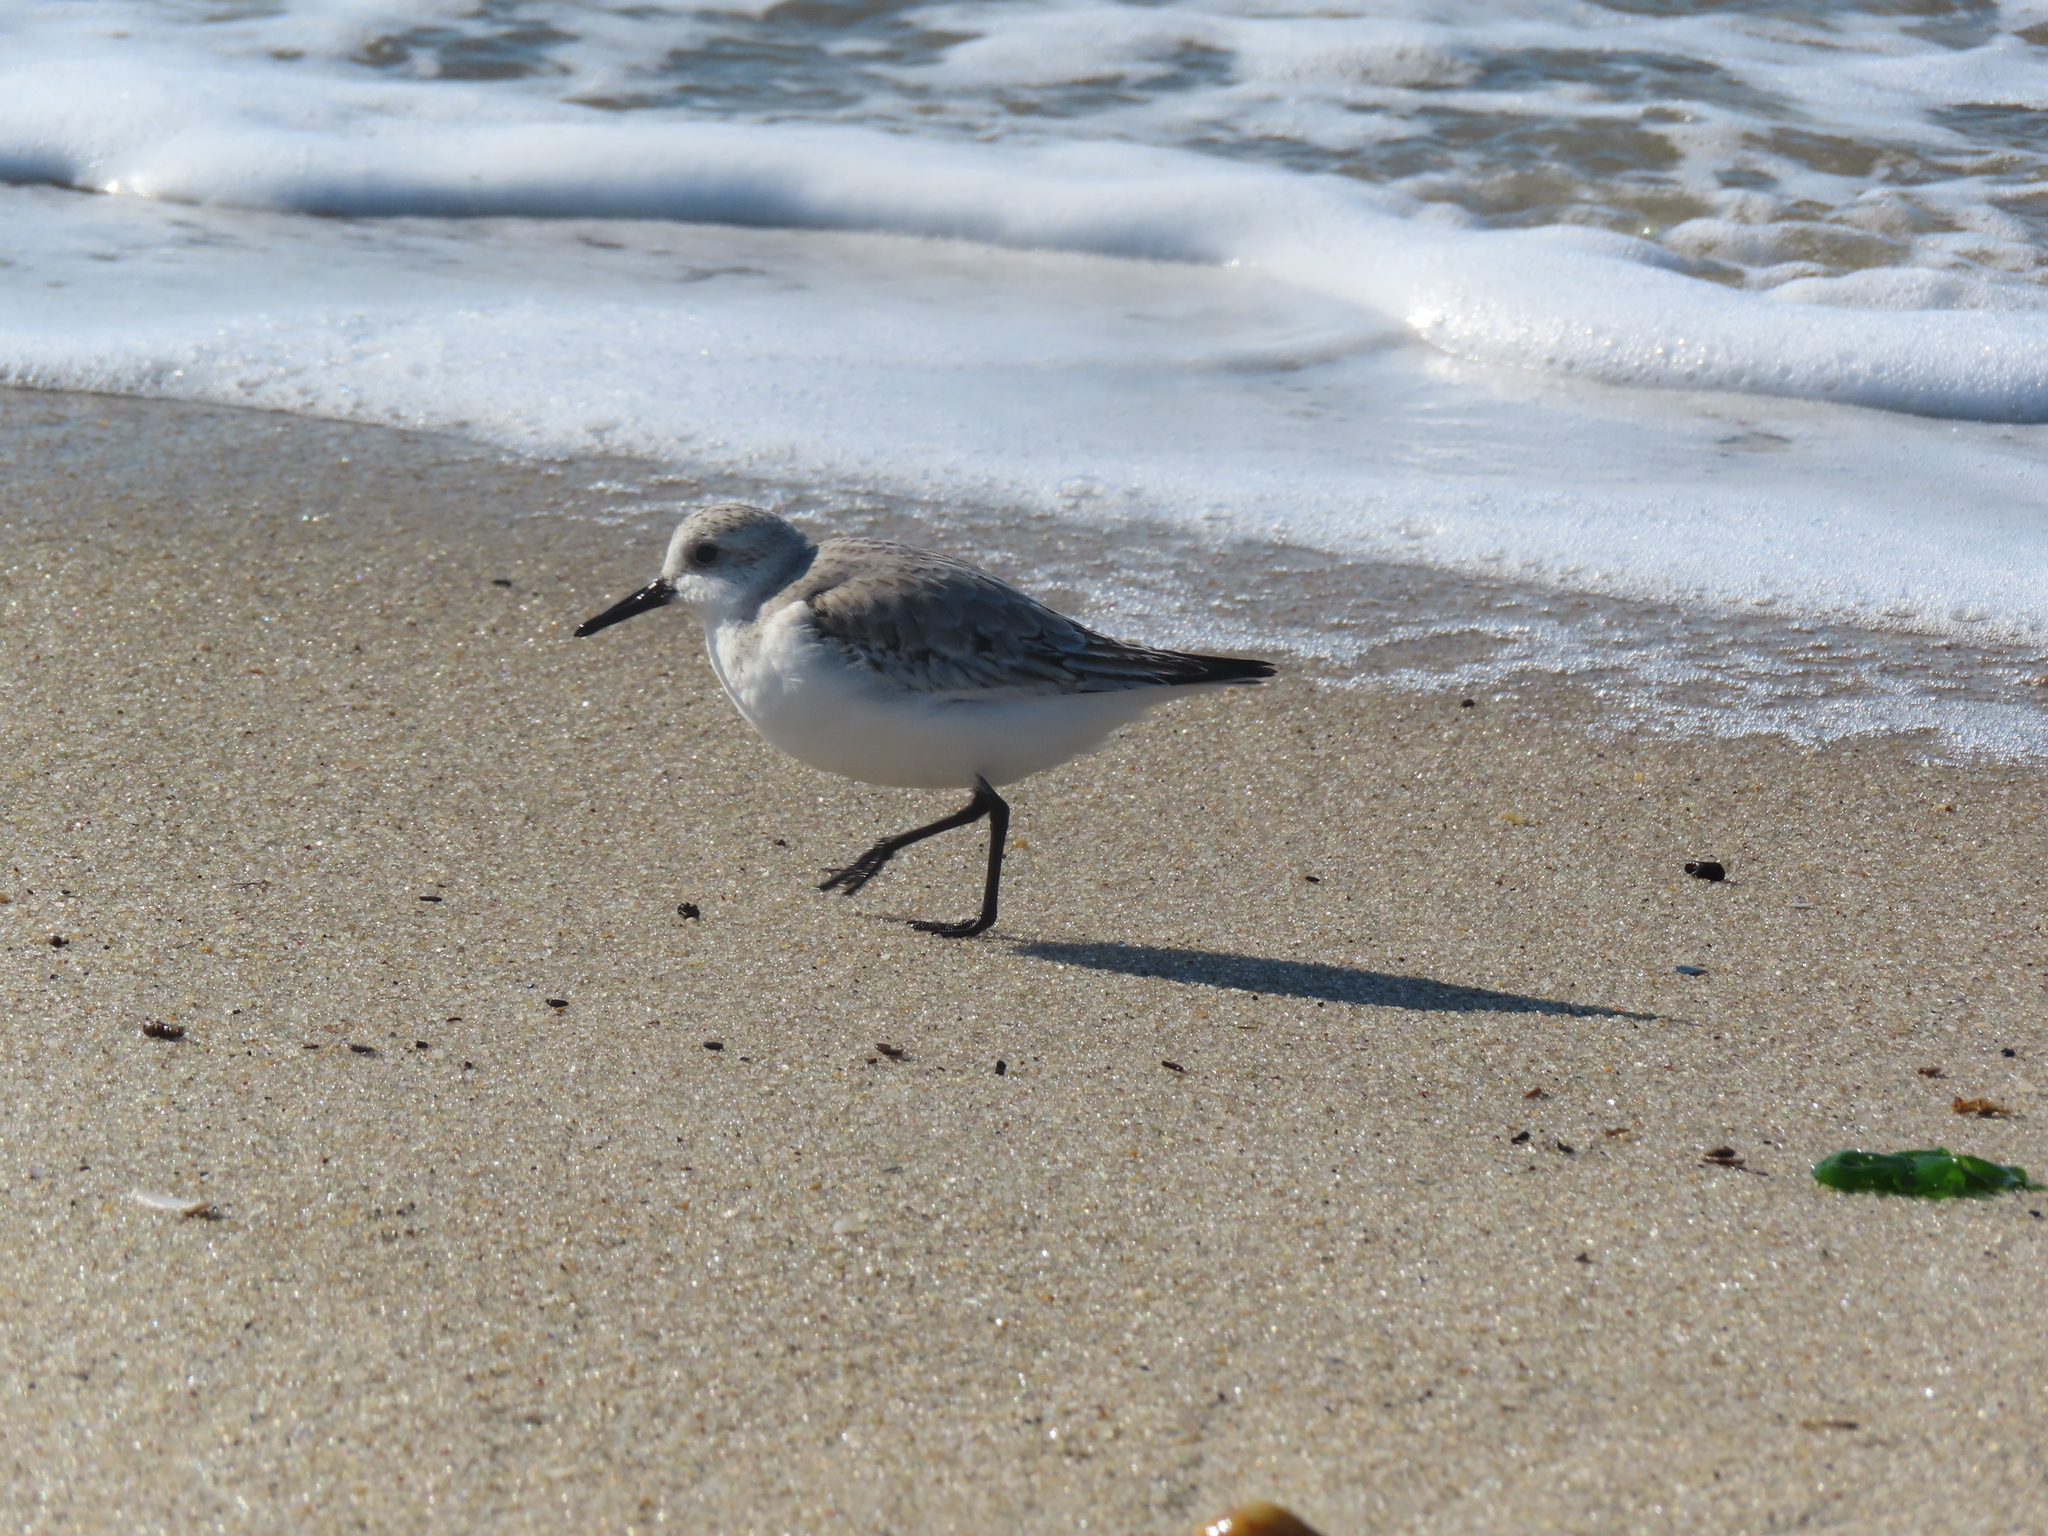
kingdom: Animalia
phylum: Chordata
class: Aves
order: Charadriiformes
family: Scolopacidae
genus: Calidris
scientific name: Calidris alba
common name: Sanderling
